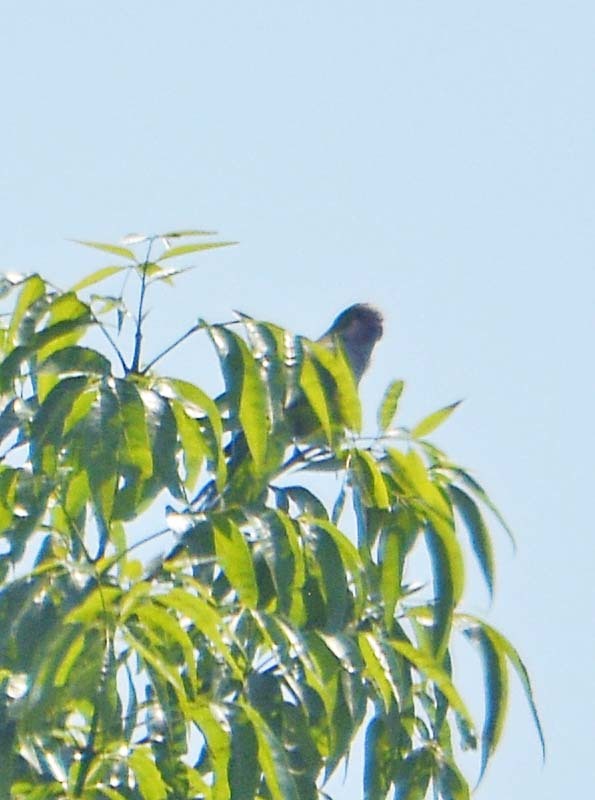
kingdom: Animalia
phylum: Chordata
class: Aves
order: Psittaciformes
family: Psittacidae
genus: Myiopsitta
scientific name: Myiopsitta monachus
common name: Monk parakeet
